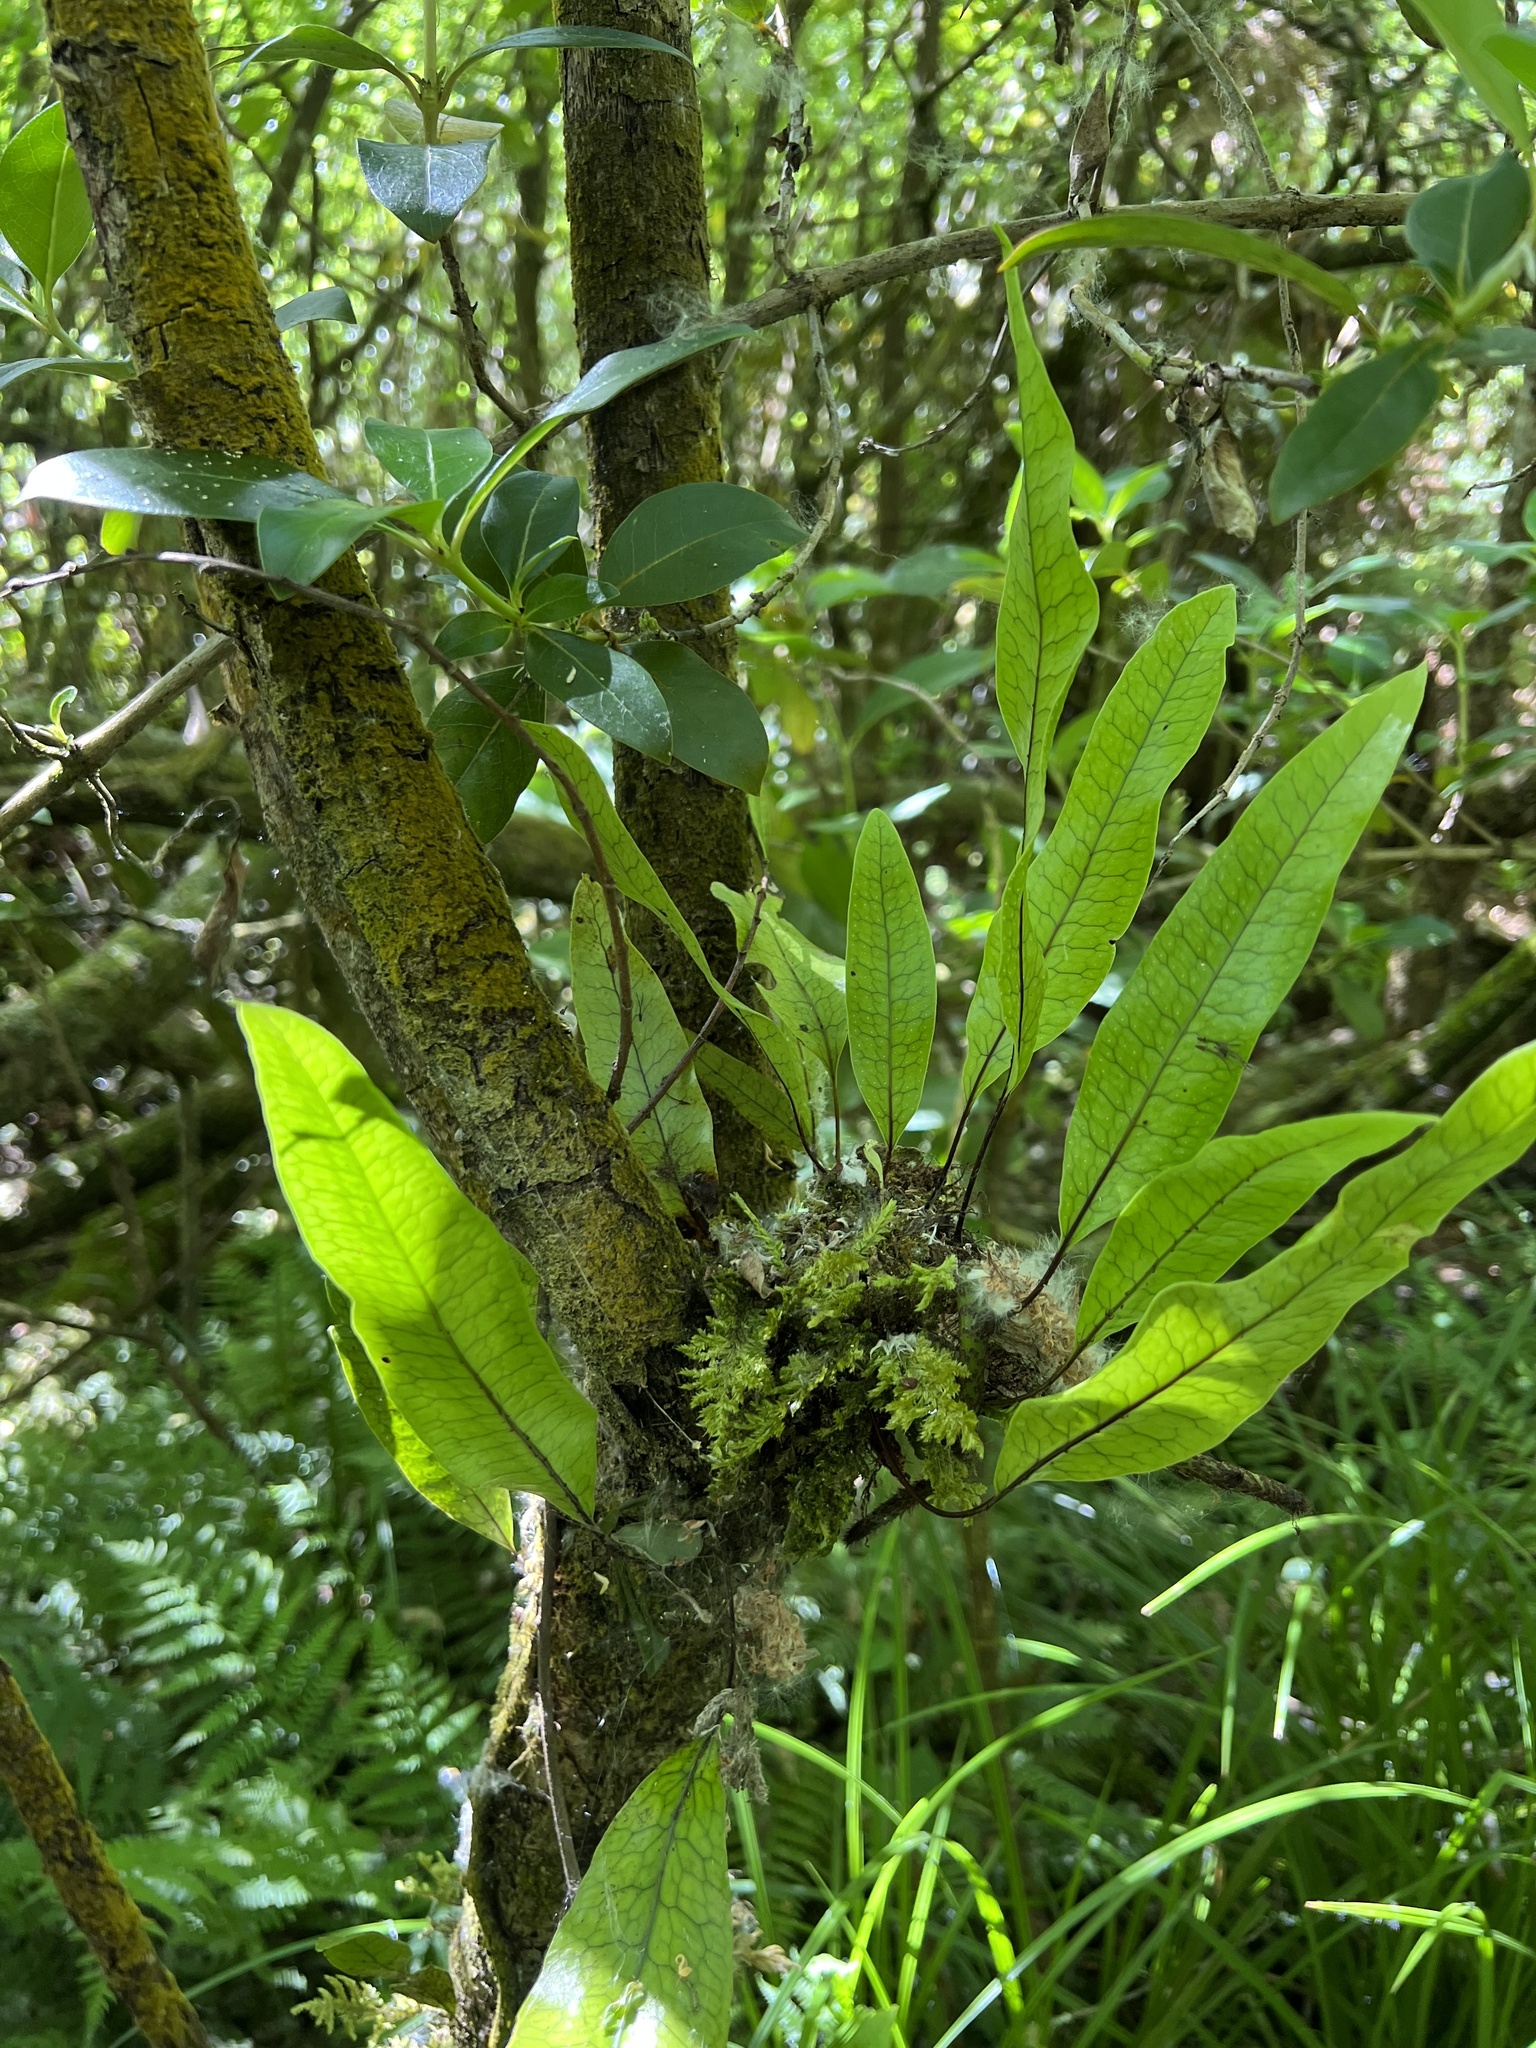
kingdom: Plantae
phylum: Tracheophyta
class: Polypodiopsida
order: Polypodiales
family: Polypodiaceae
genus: Lecanopteris
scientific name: Lecanopteris pustulata
